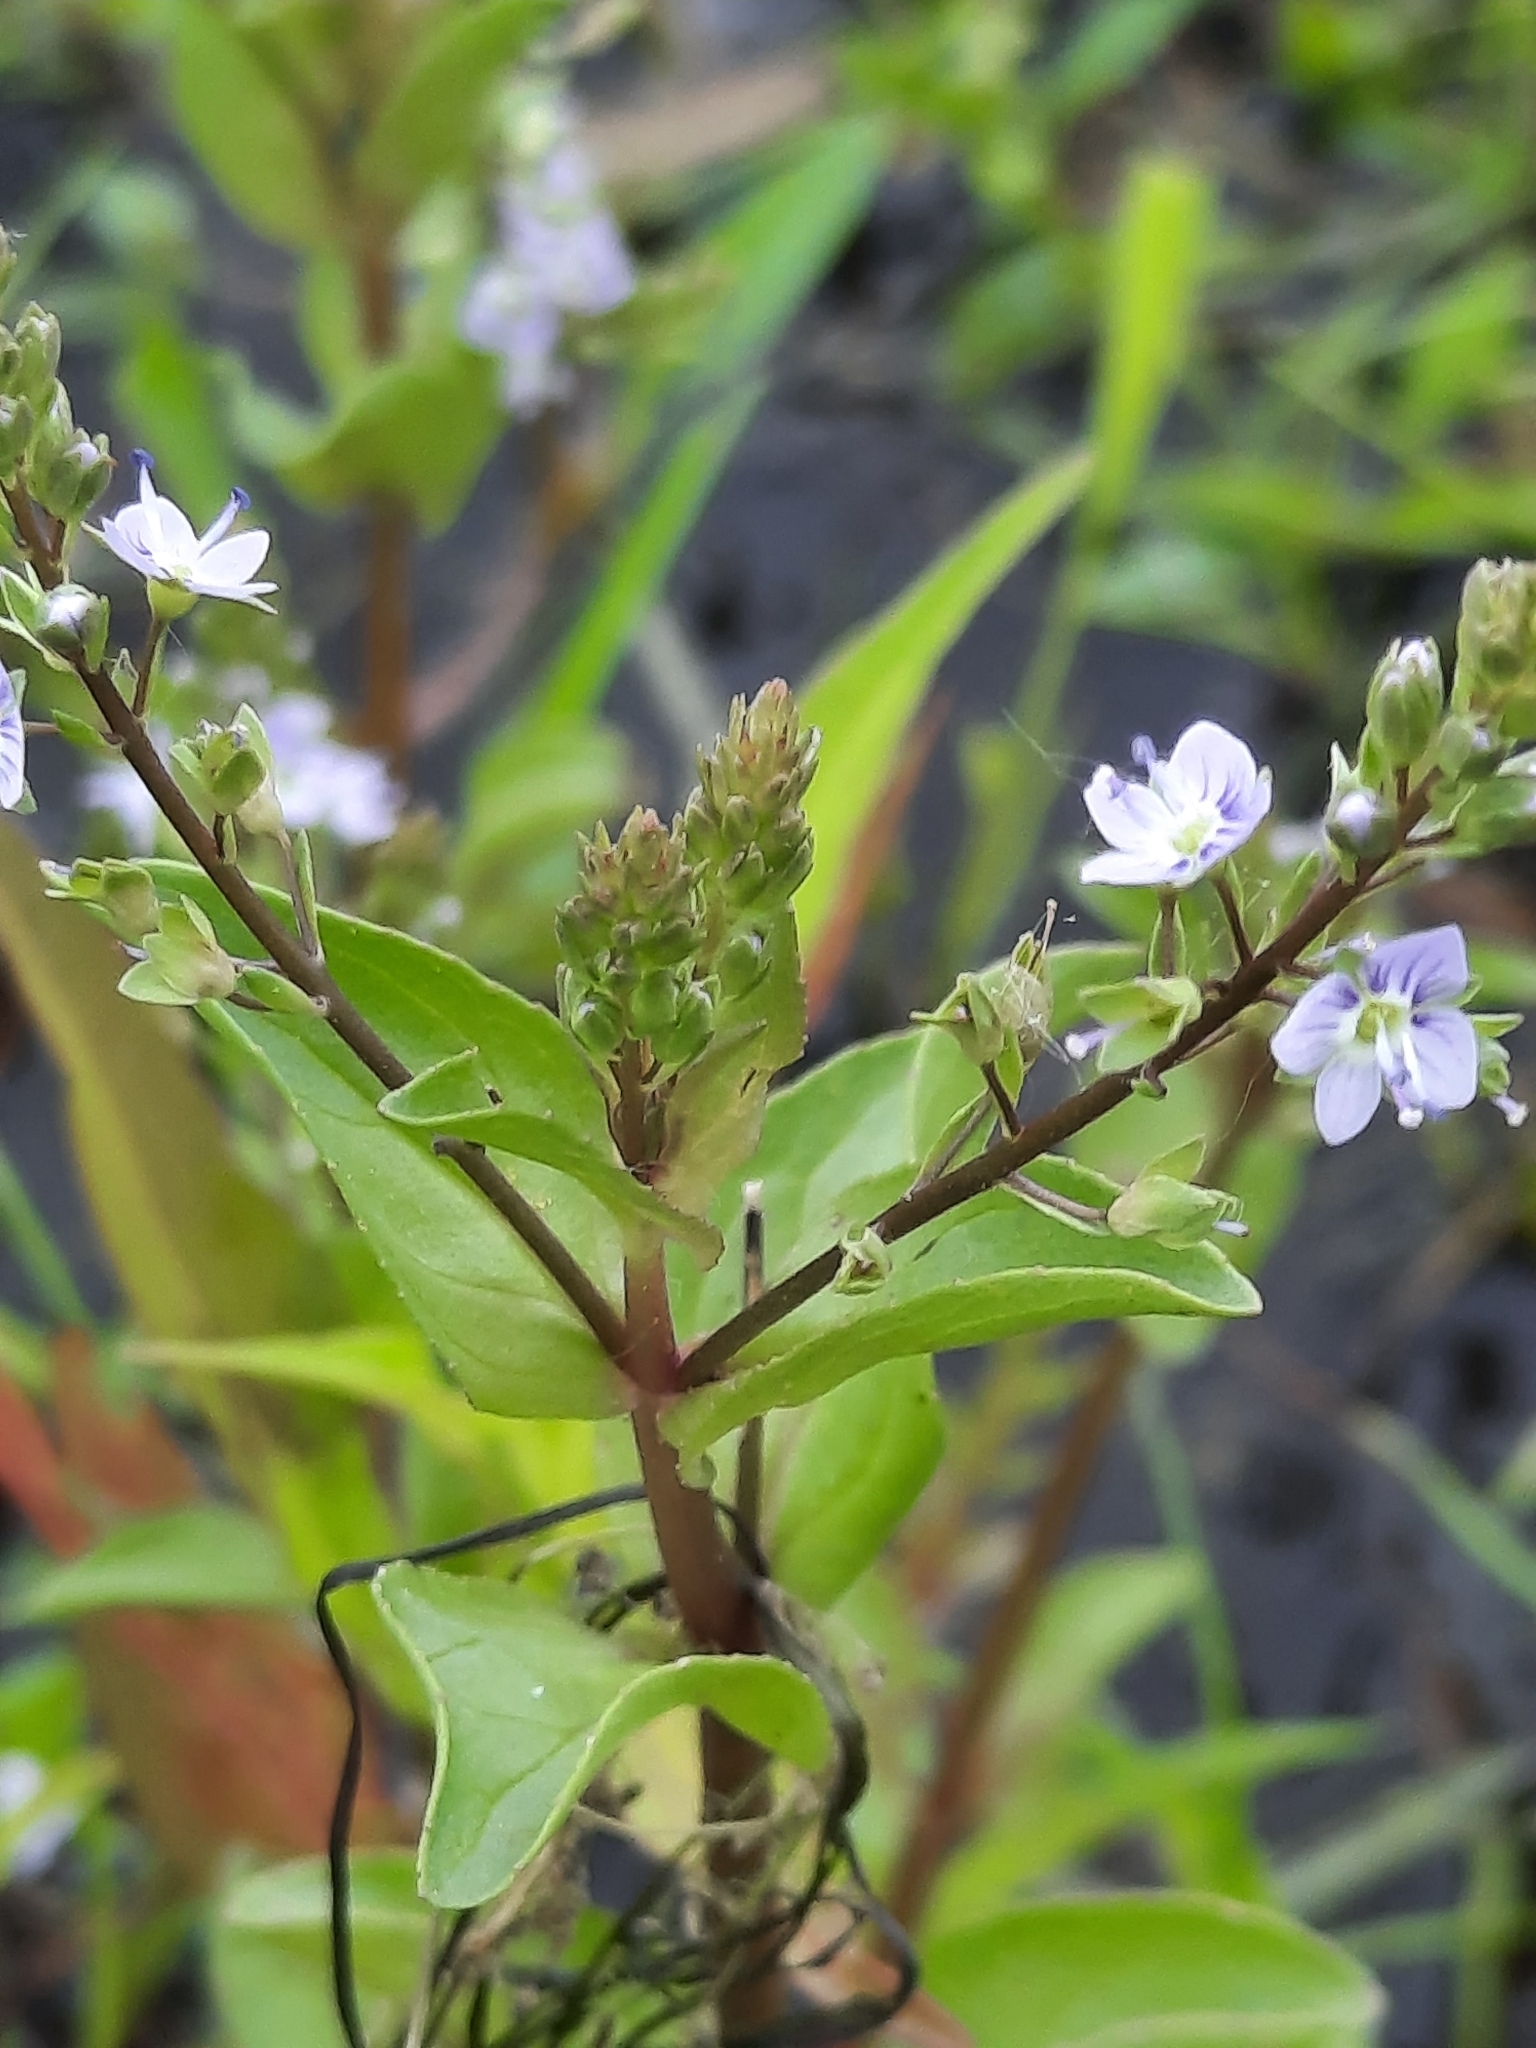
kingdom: Plantae
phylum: Tracheophyta
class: Magnoliopsida
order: Lamiales
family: Plantaginaceae
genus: Veronica
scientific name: Veronica anagallis-aquatica
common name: Water speedwell
